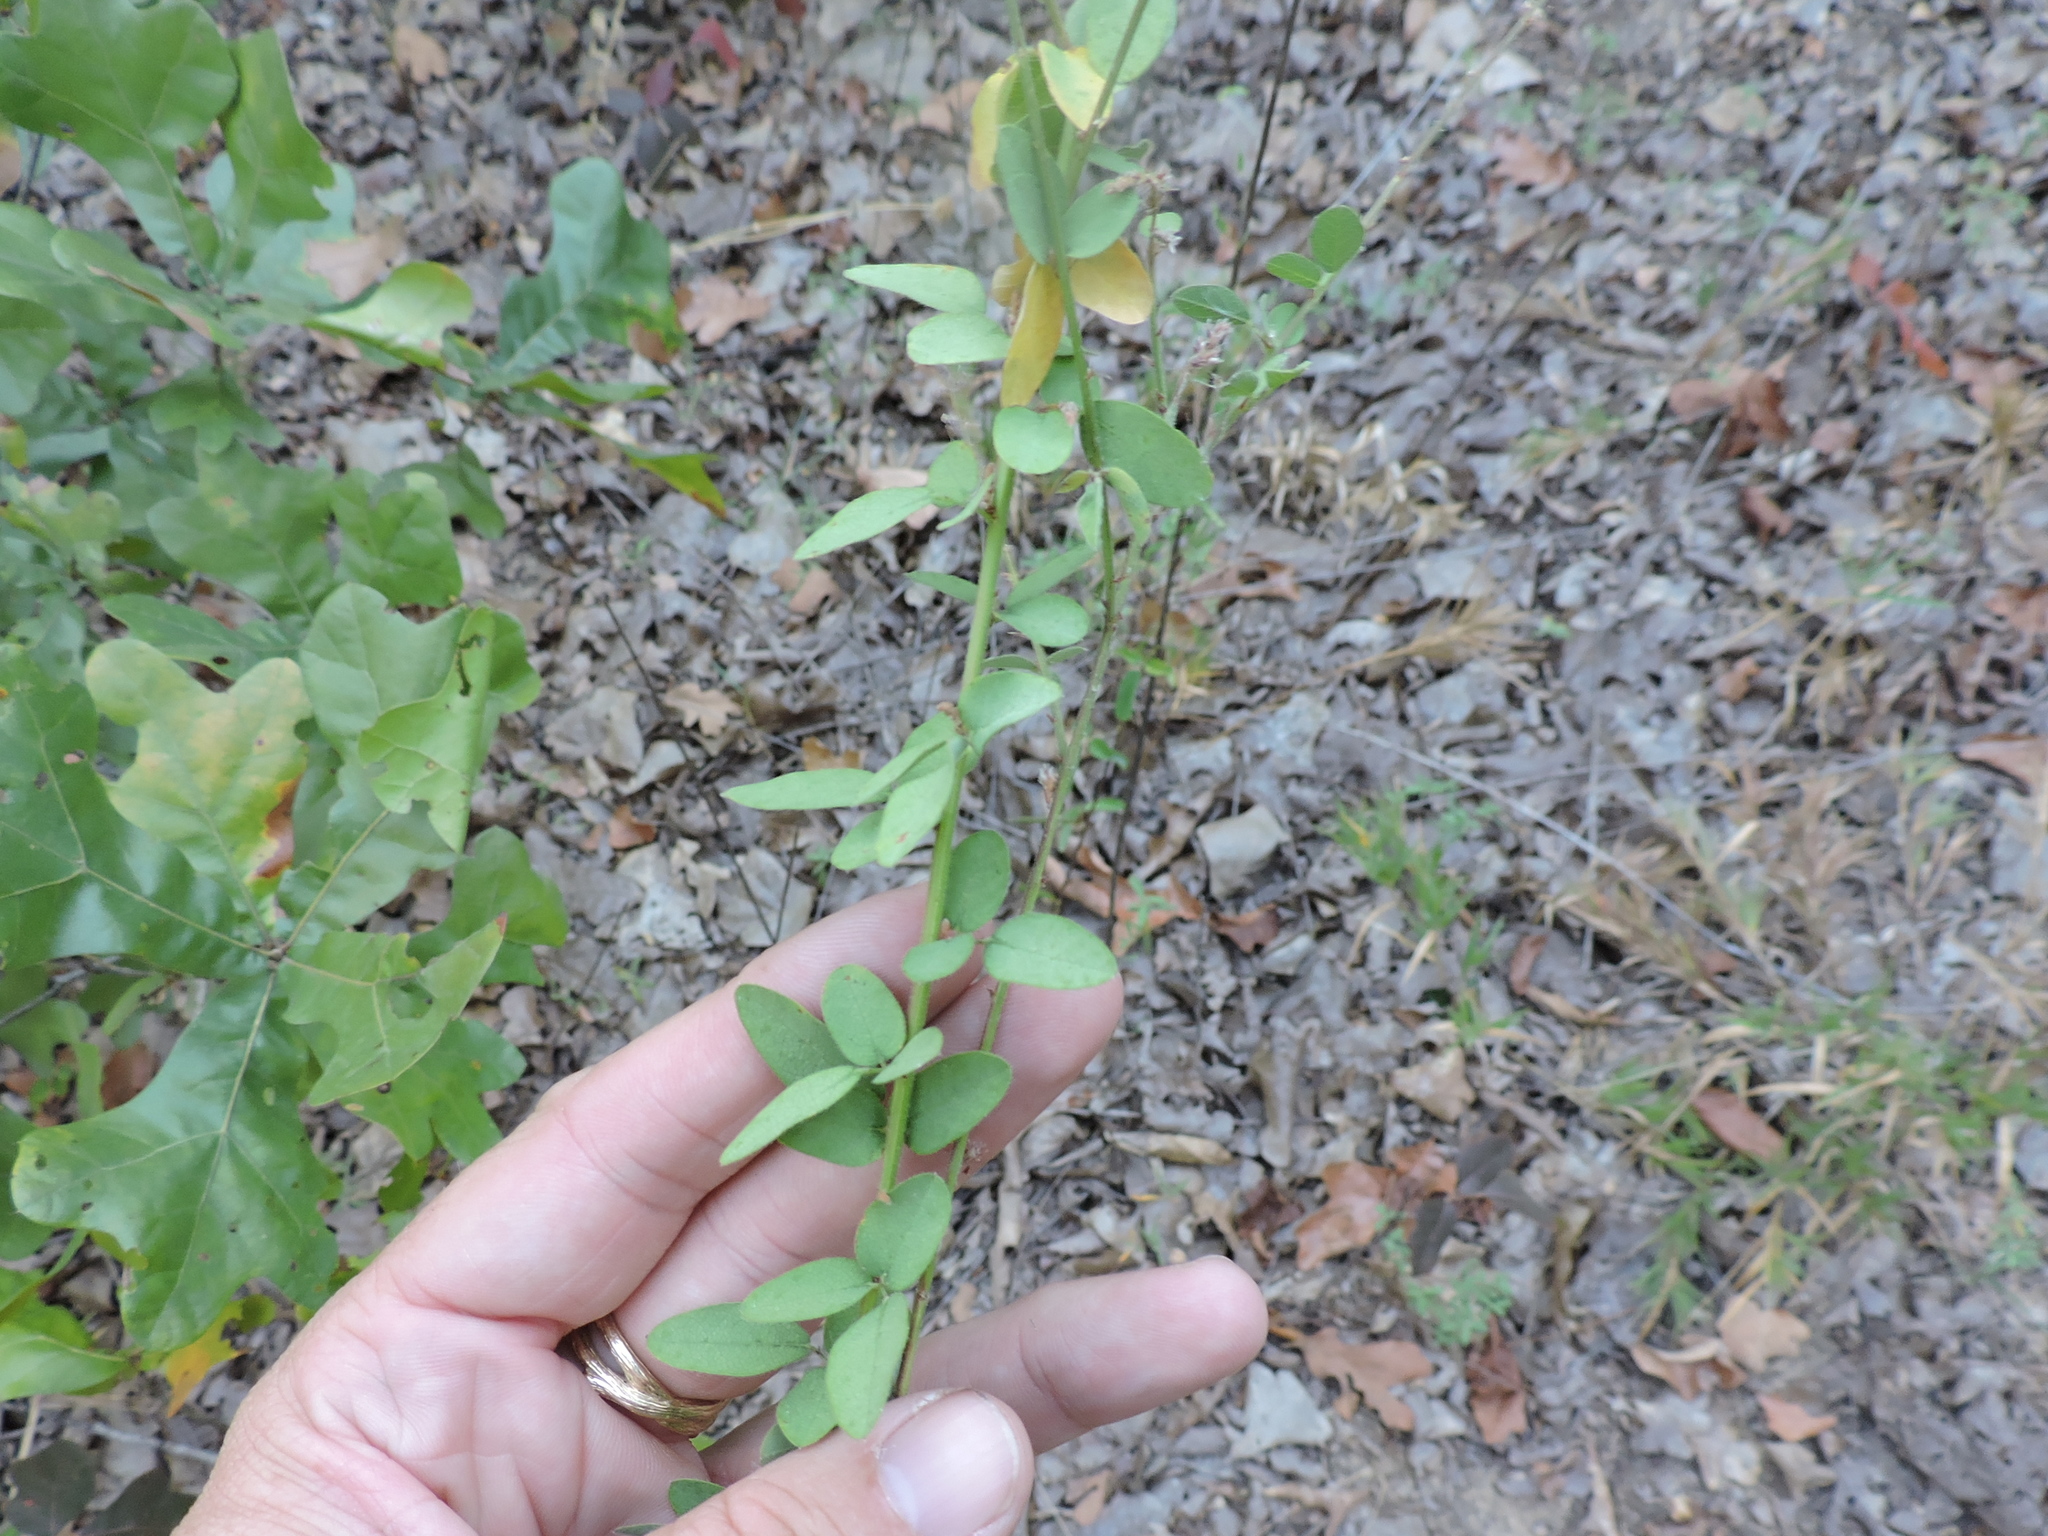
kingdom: Plantae
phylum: Tracheophyta
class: Magnoliopsida
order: Fabales
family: Fabaceae
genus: Desmodium
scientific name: Desmodium ciliare
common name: Hairy small-leaf ticktrefoil
